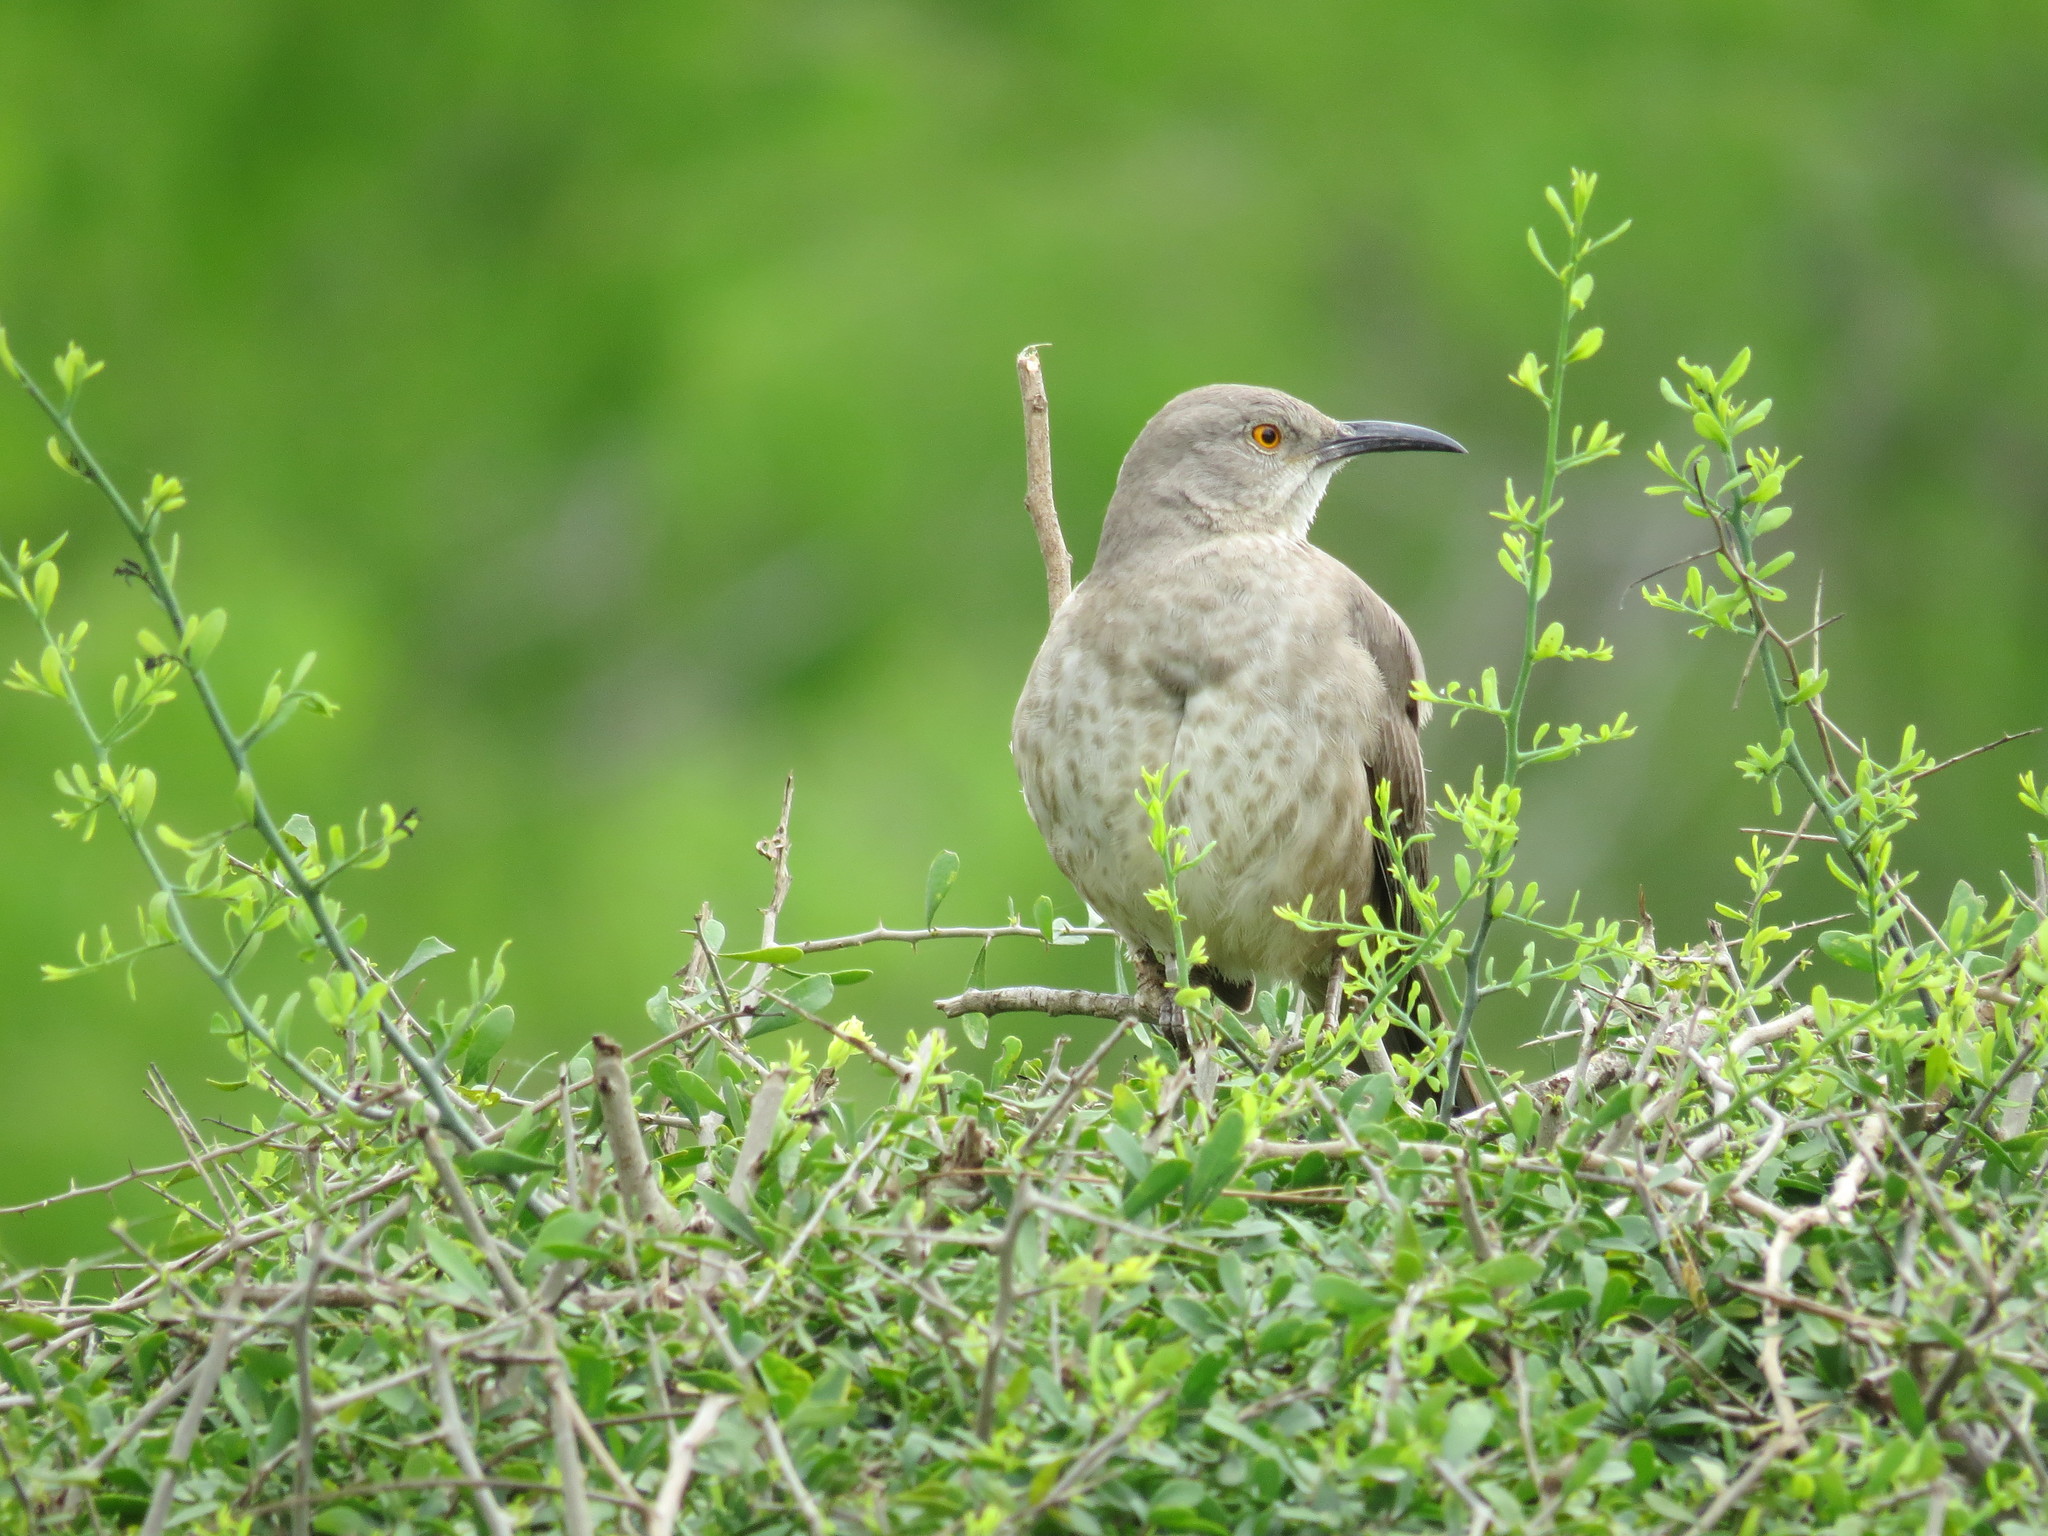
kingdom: Animalia
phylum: Chordata
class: Aves
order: Passeriformes
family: Mimidae
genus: Toxostoma
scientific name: Toxostoma curvirostre
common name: Curve-billed thrasher
